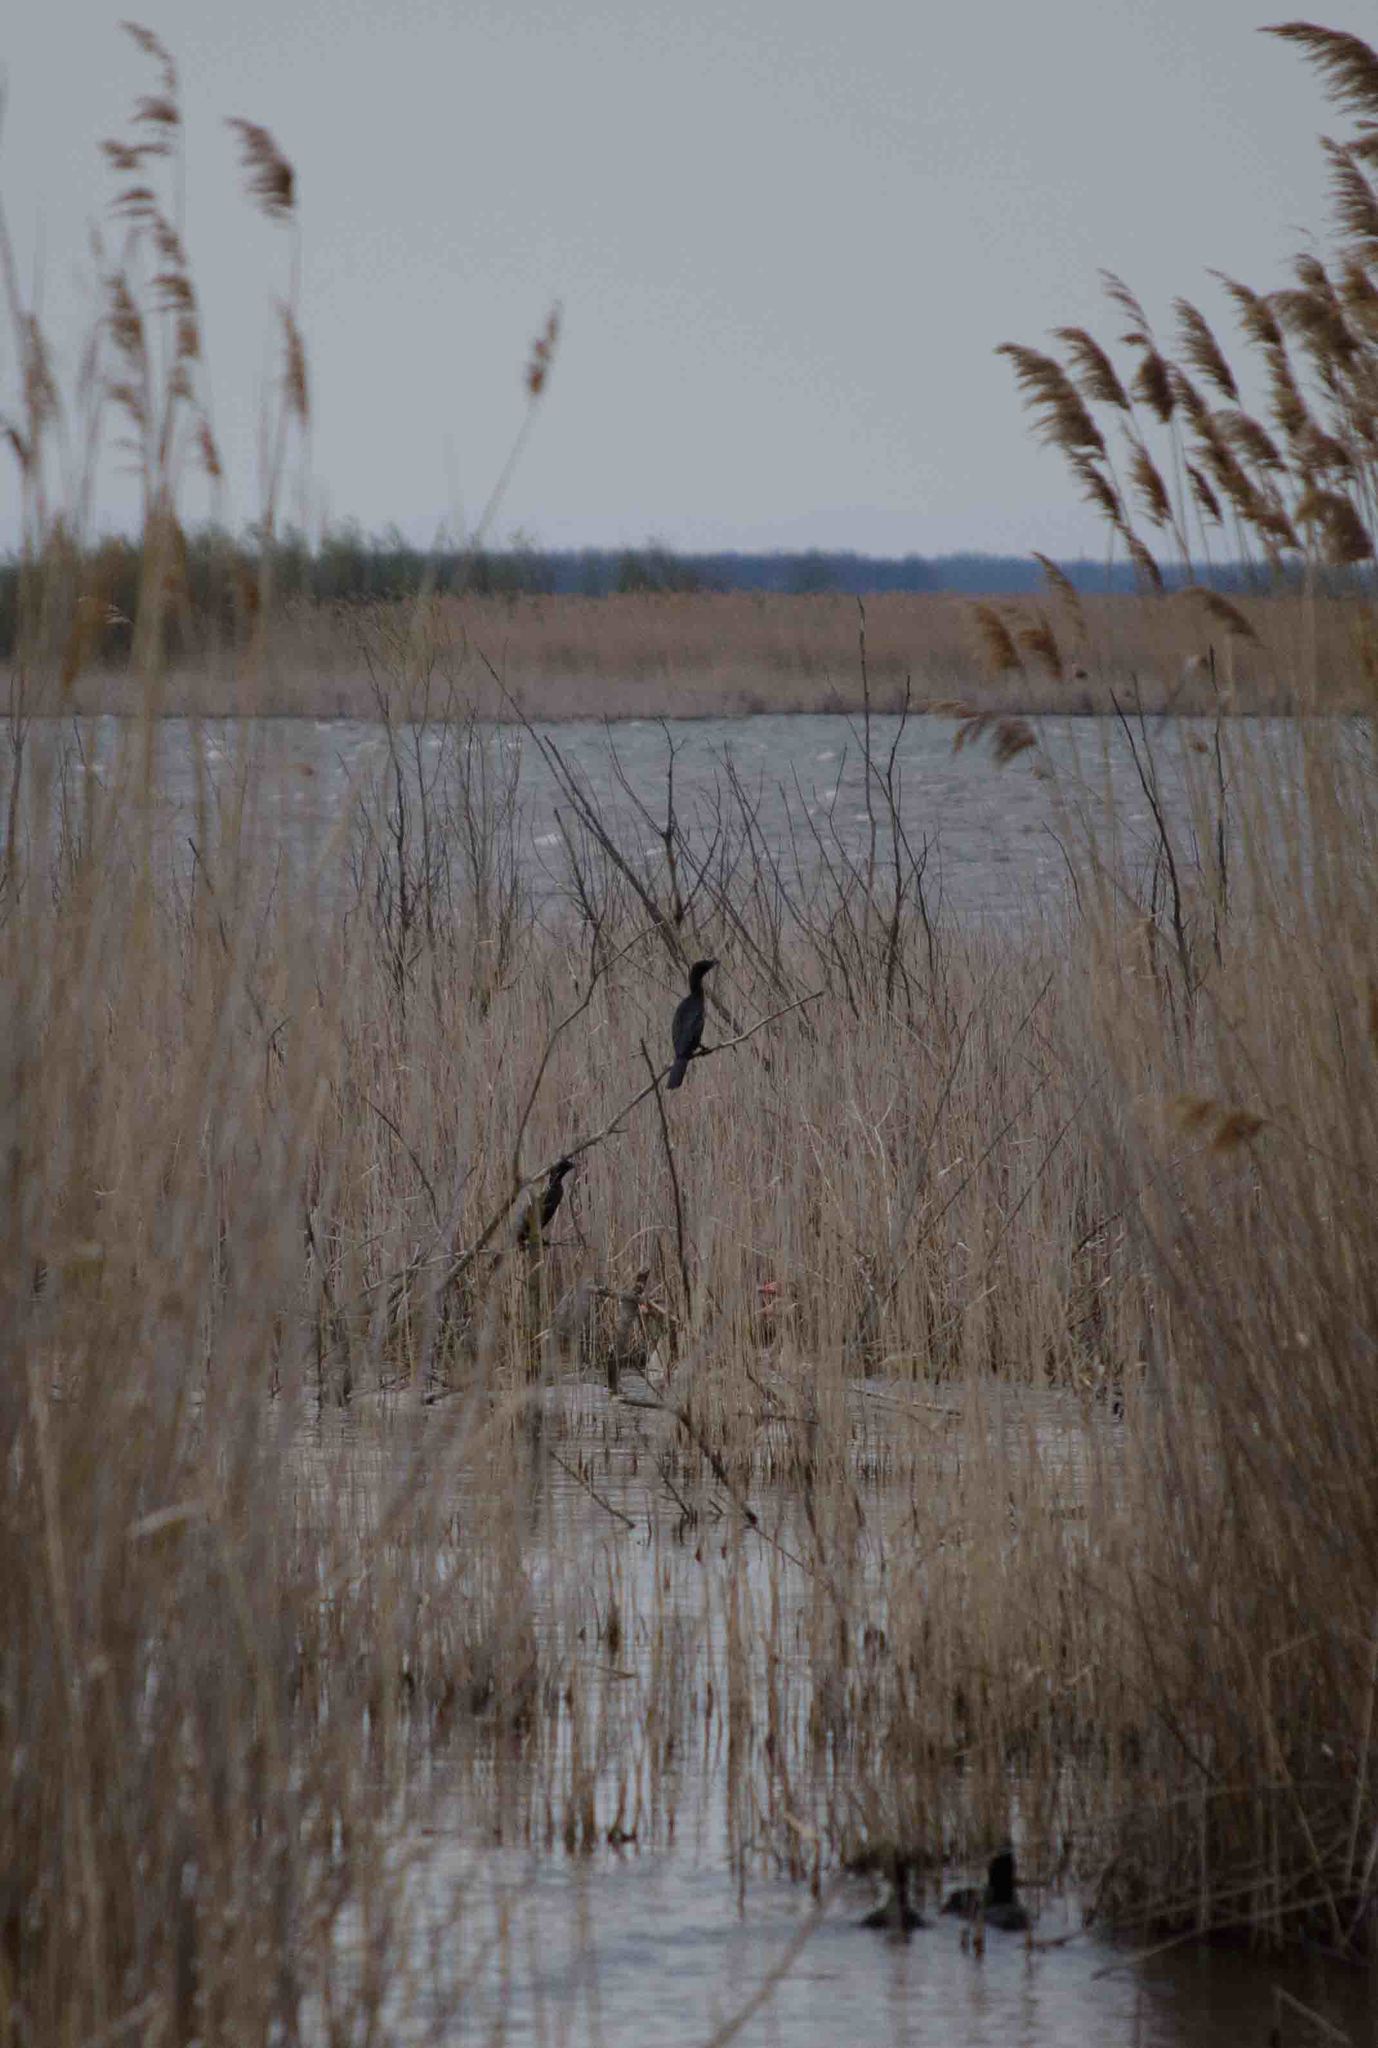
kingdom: Animalia
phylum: Chordata
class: Aves
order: Suliformes
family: Phalacrocoracidae
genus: Microcarbo
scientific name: Microcarbo pygmaeus
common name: Pygmy cormorant
